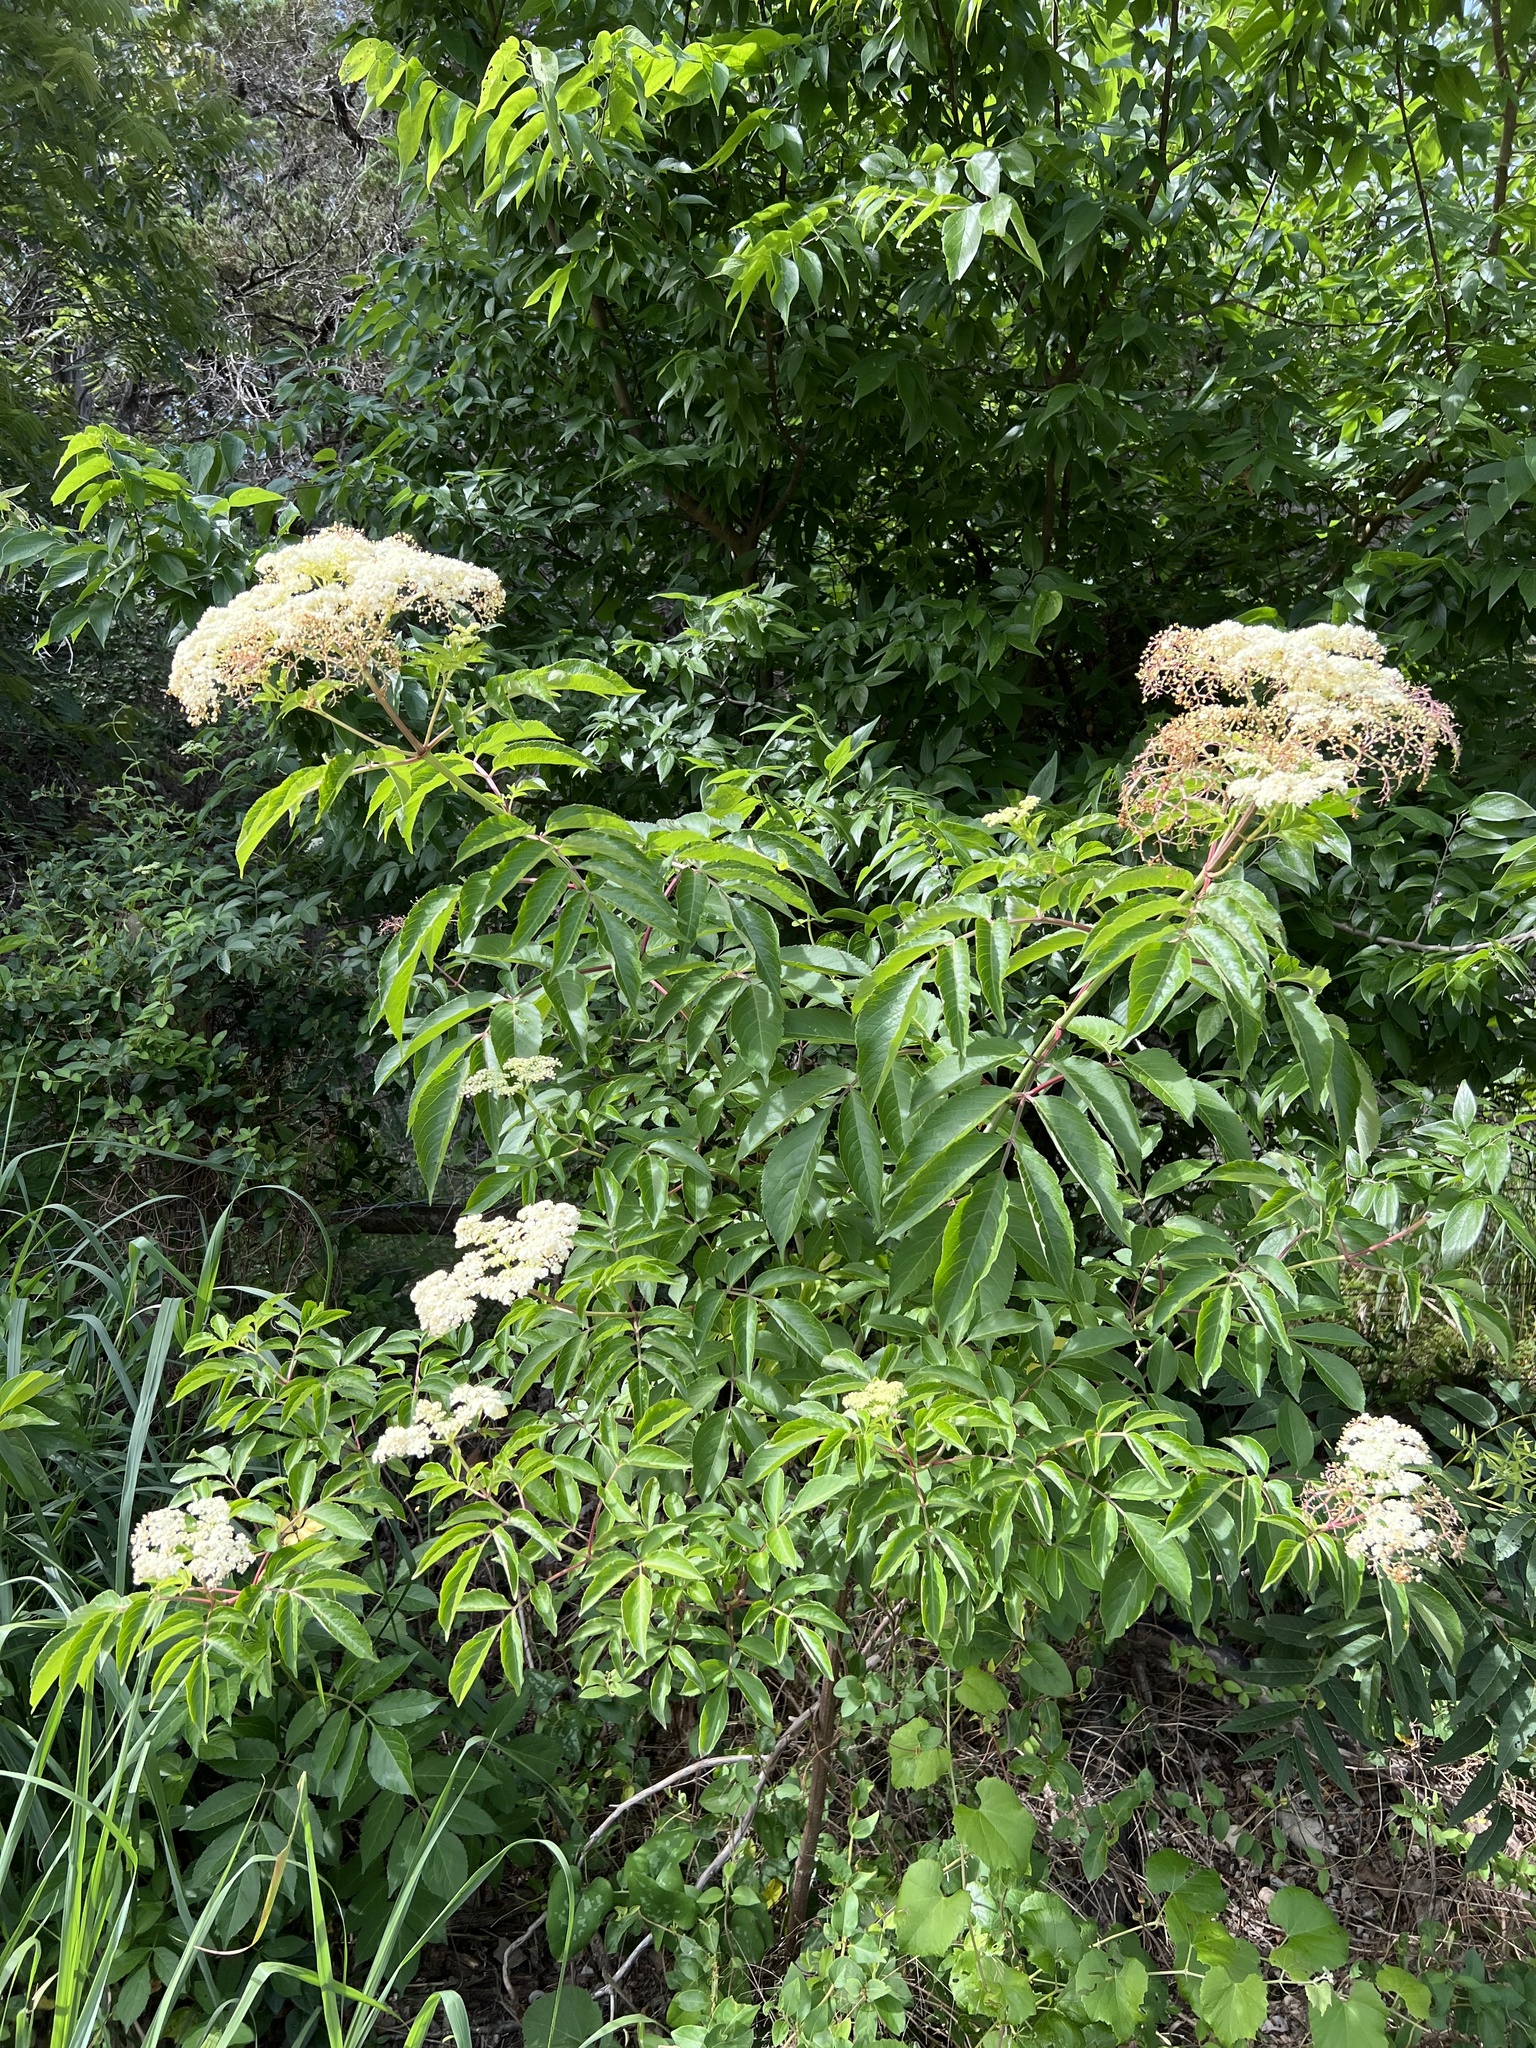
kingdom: Plantae
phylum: Tracheophyta
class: Magnoliopsida
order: Dipsacales
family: Viburnaceae
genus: Sambucus
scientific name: Sambucus canadensis
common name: American elder
